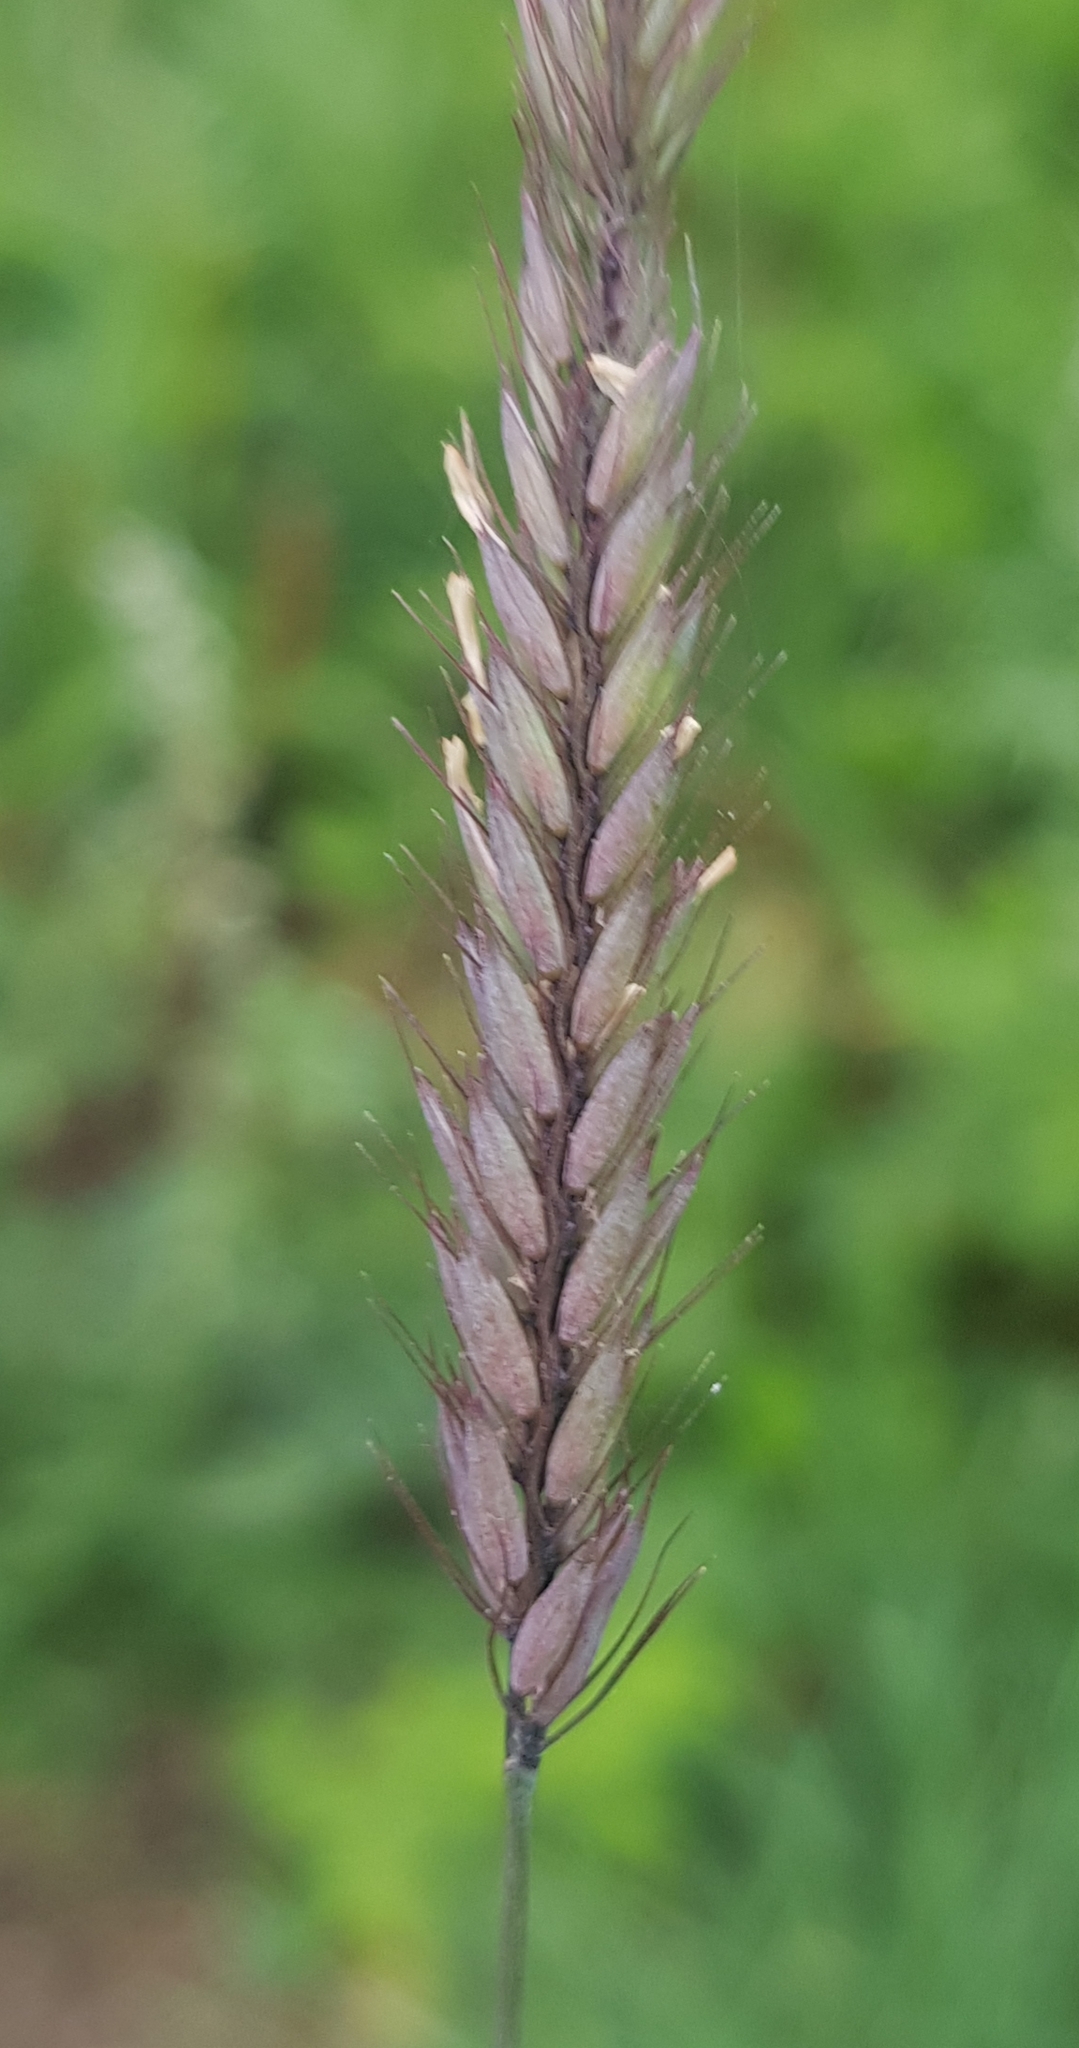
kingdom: Plantae
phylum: Tracheophyta
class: Liliopsida
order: Poales
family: Poaceae
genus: Hordeum
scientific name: Hordeum brevisubulatum
